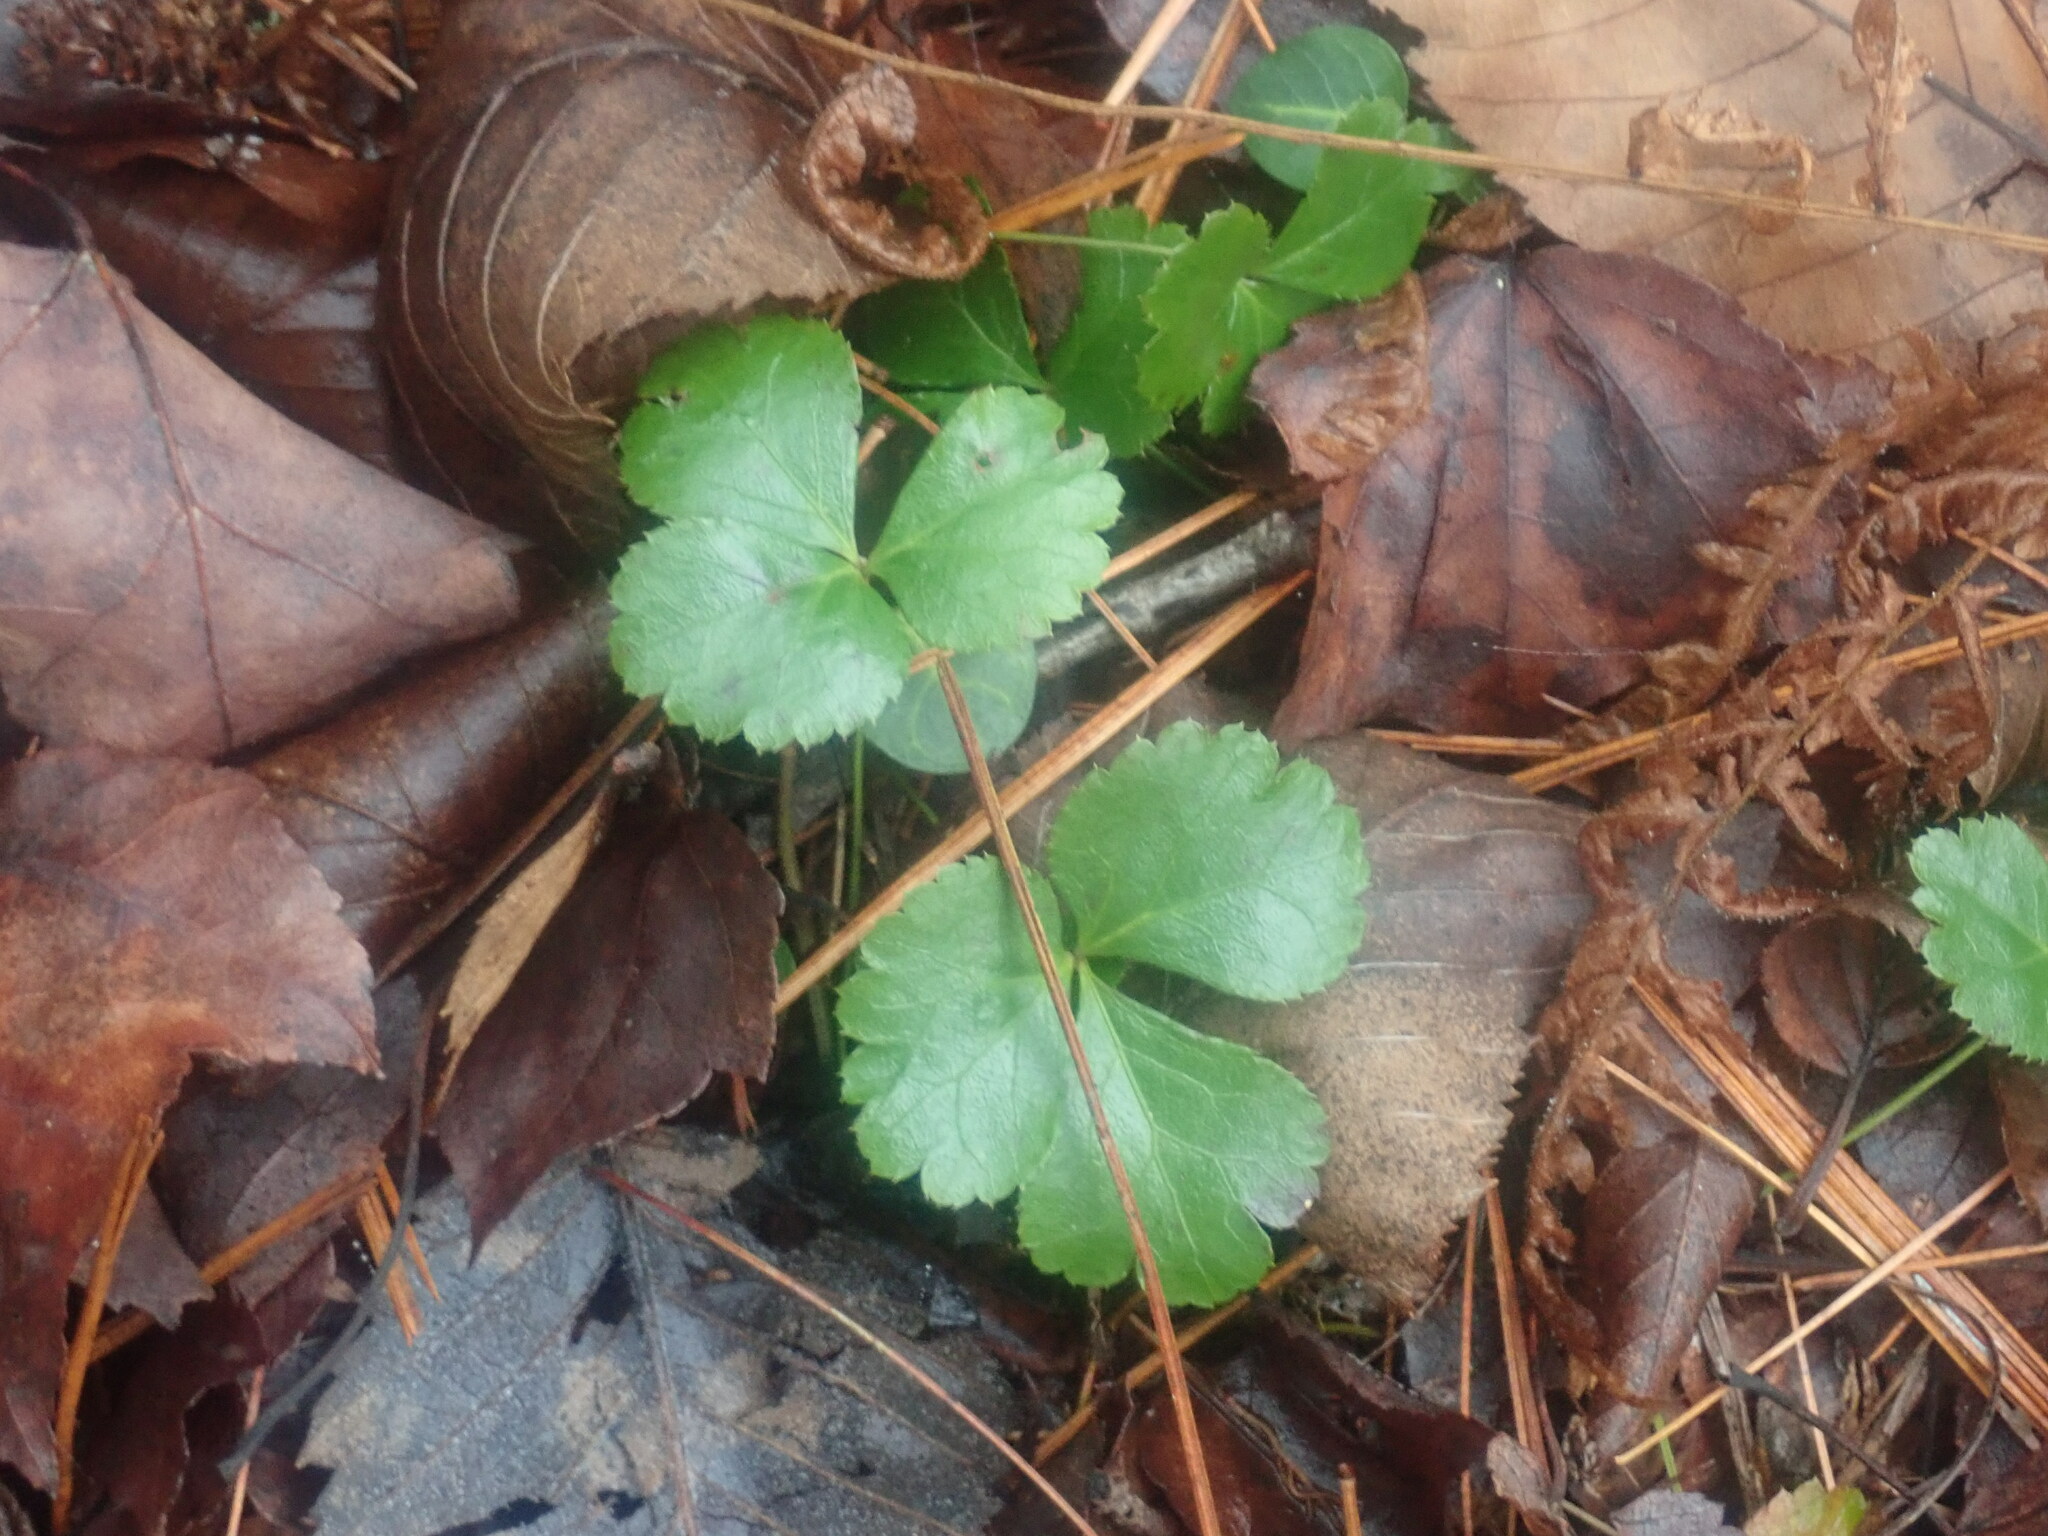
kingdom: Plantae
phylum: Tracheophyta
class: Magnoliopsida
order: Ranunculales
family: Ranunculaceae
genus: Coptis
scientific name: Coptis trifolia
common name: Canker-root
